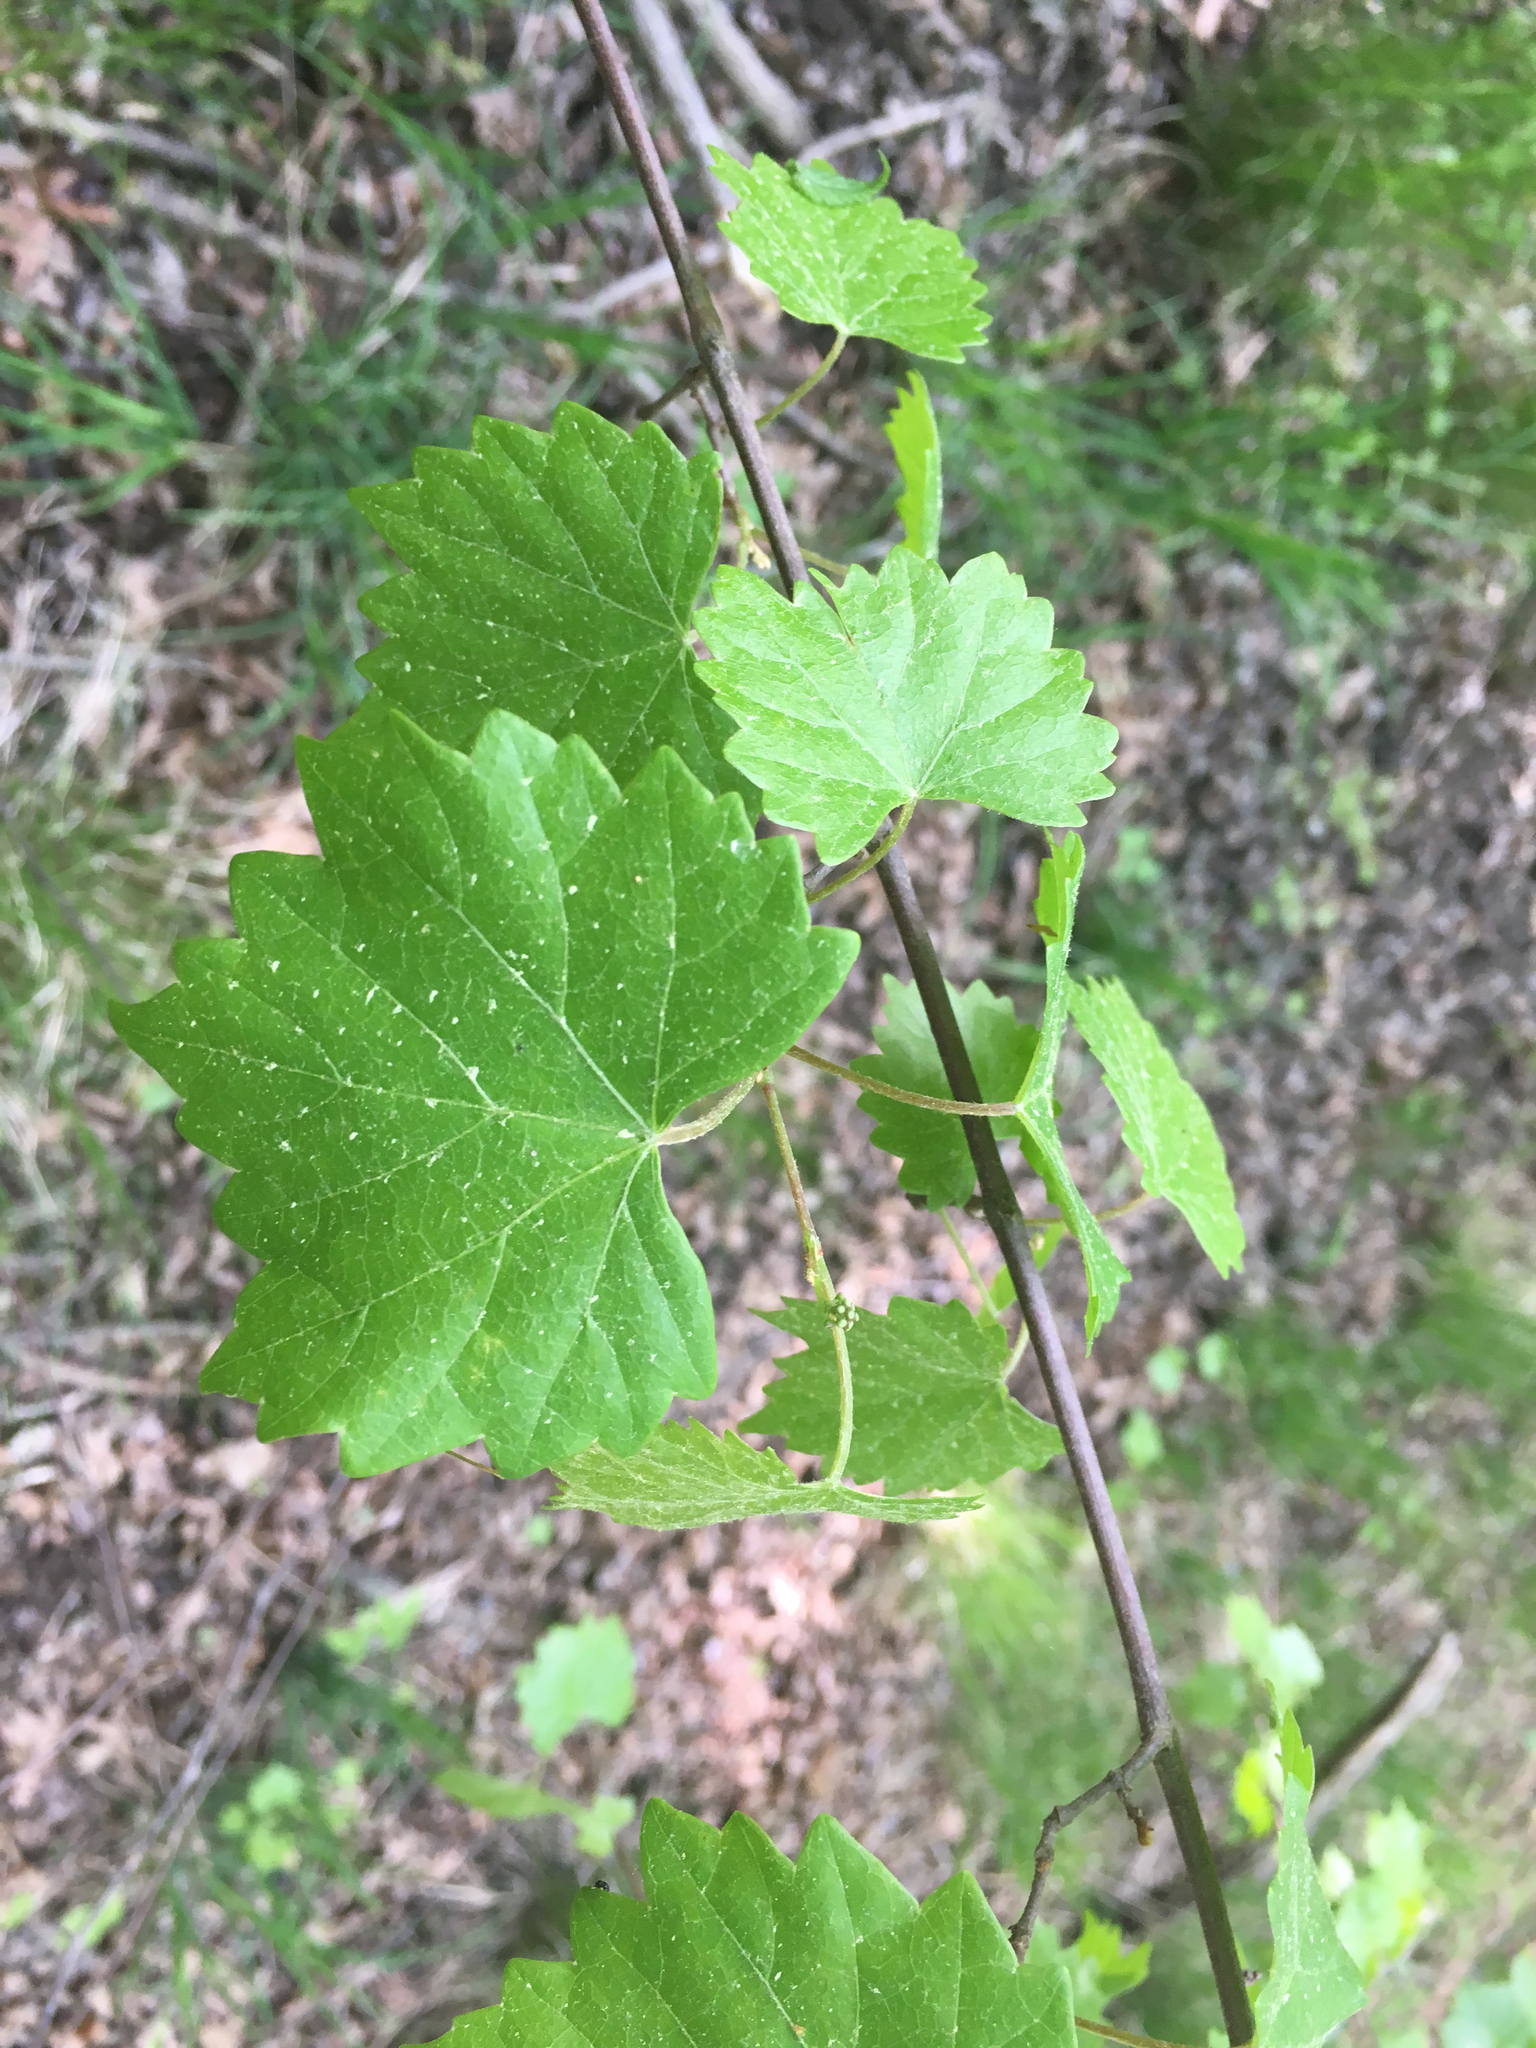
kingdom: Plantae
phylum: Tracheophyta
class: Magnoliopsida
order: Vitales
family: Vitaceae
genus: Vitis
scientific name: Vitis rotundifolia
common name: Muscadine grape
